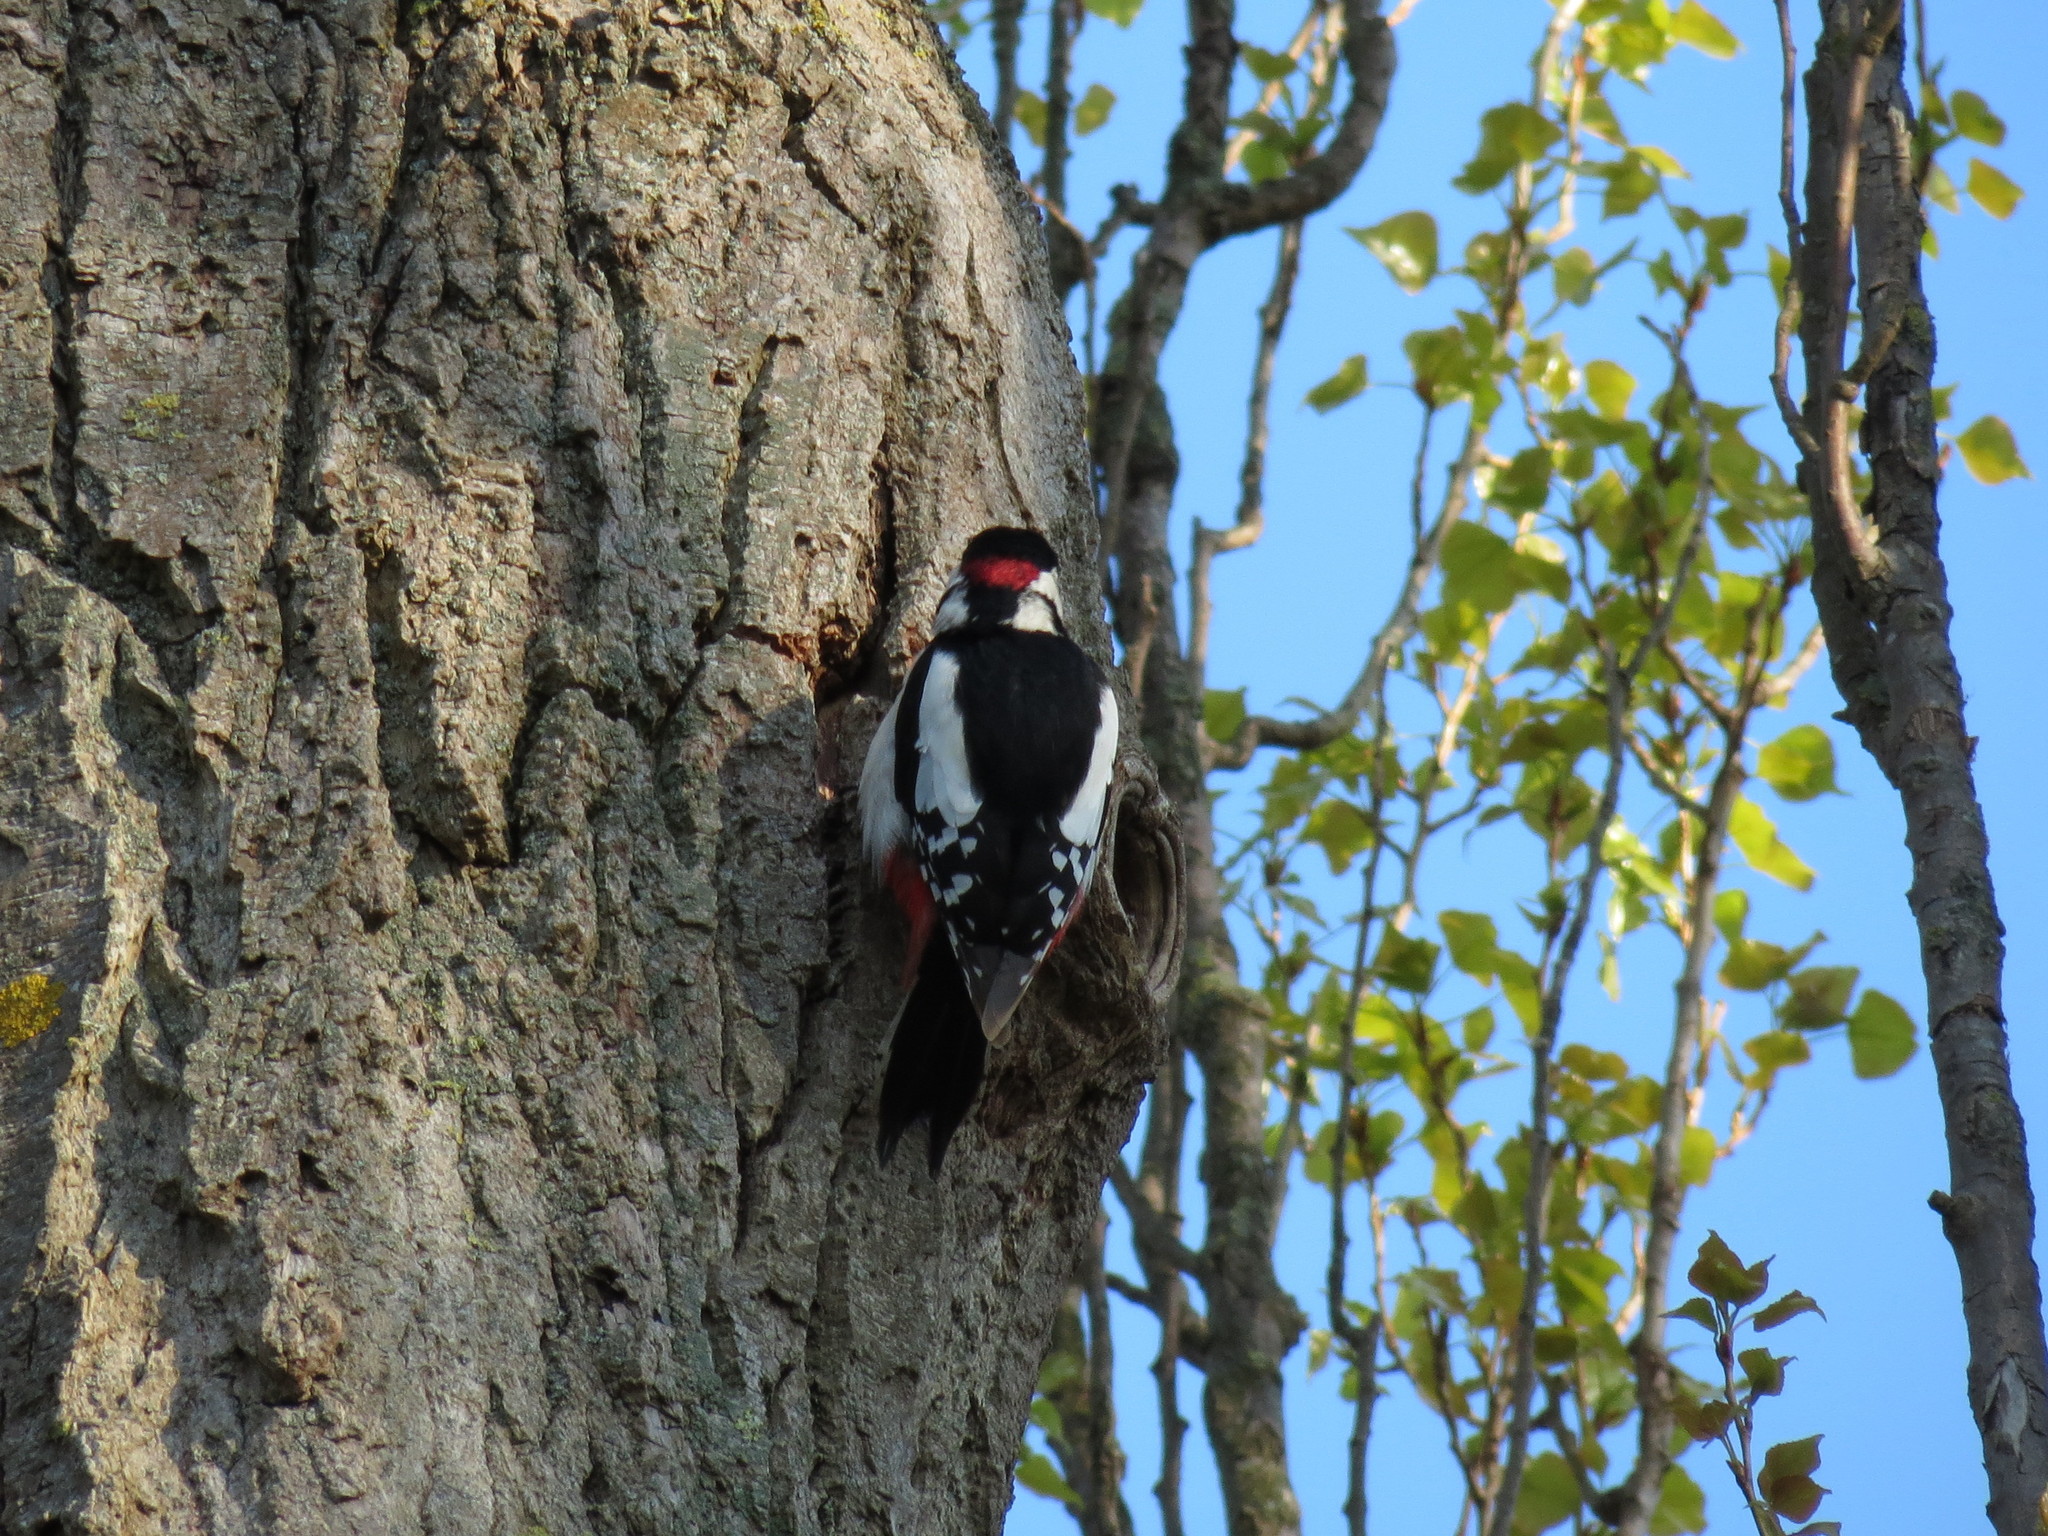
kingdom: Animalia
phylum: Chordata
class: Aves
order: Piciformes
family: Picidae
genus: Dendrocopos
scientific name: Dendrocopos major
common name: Great spotted woodpecker
